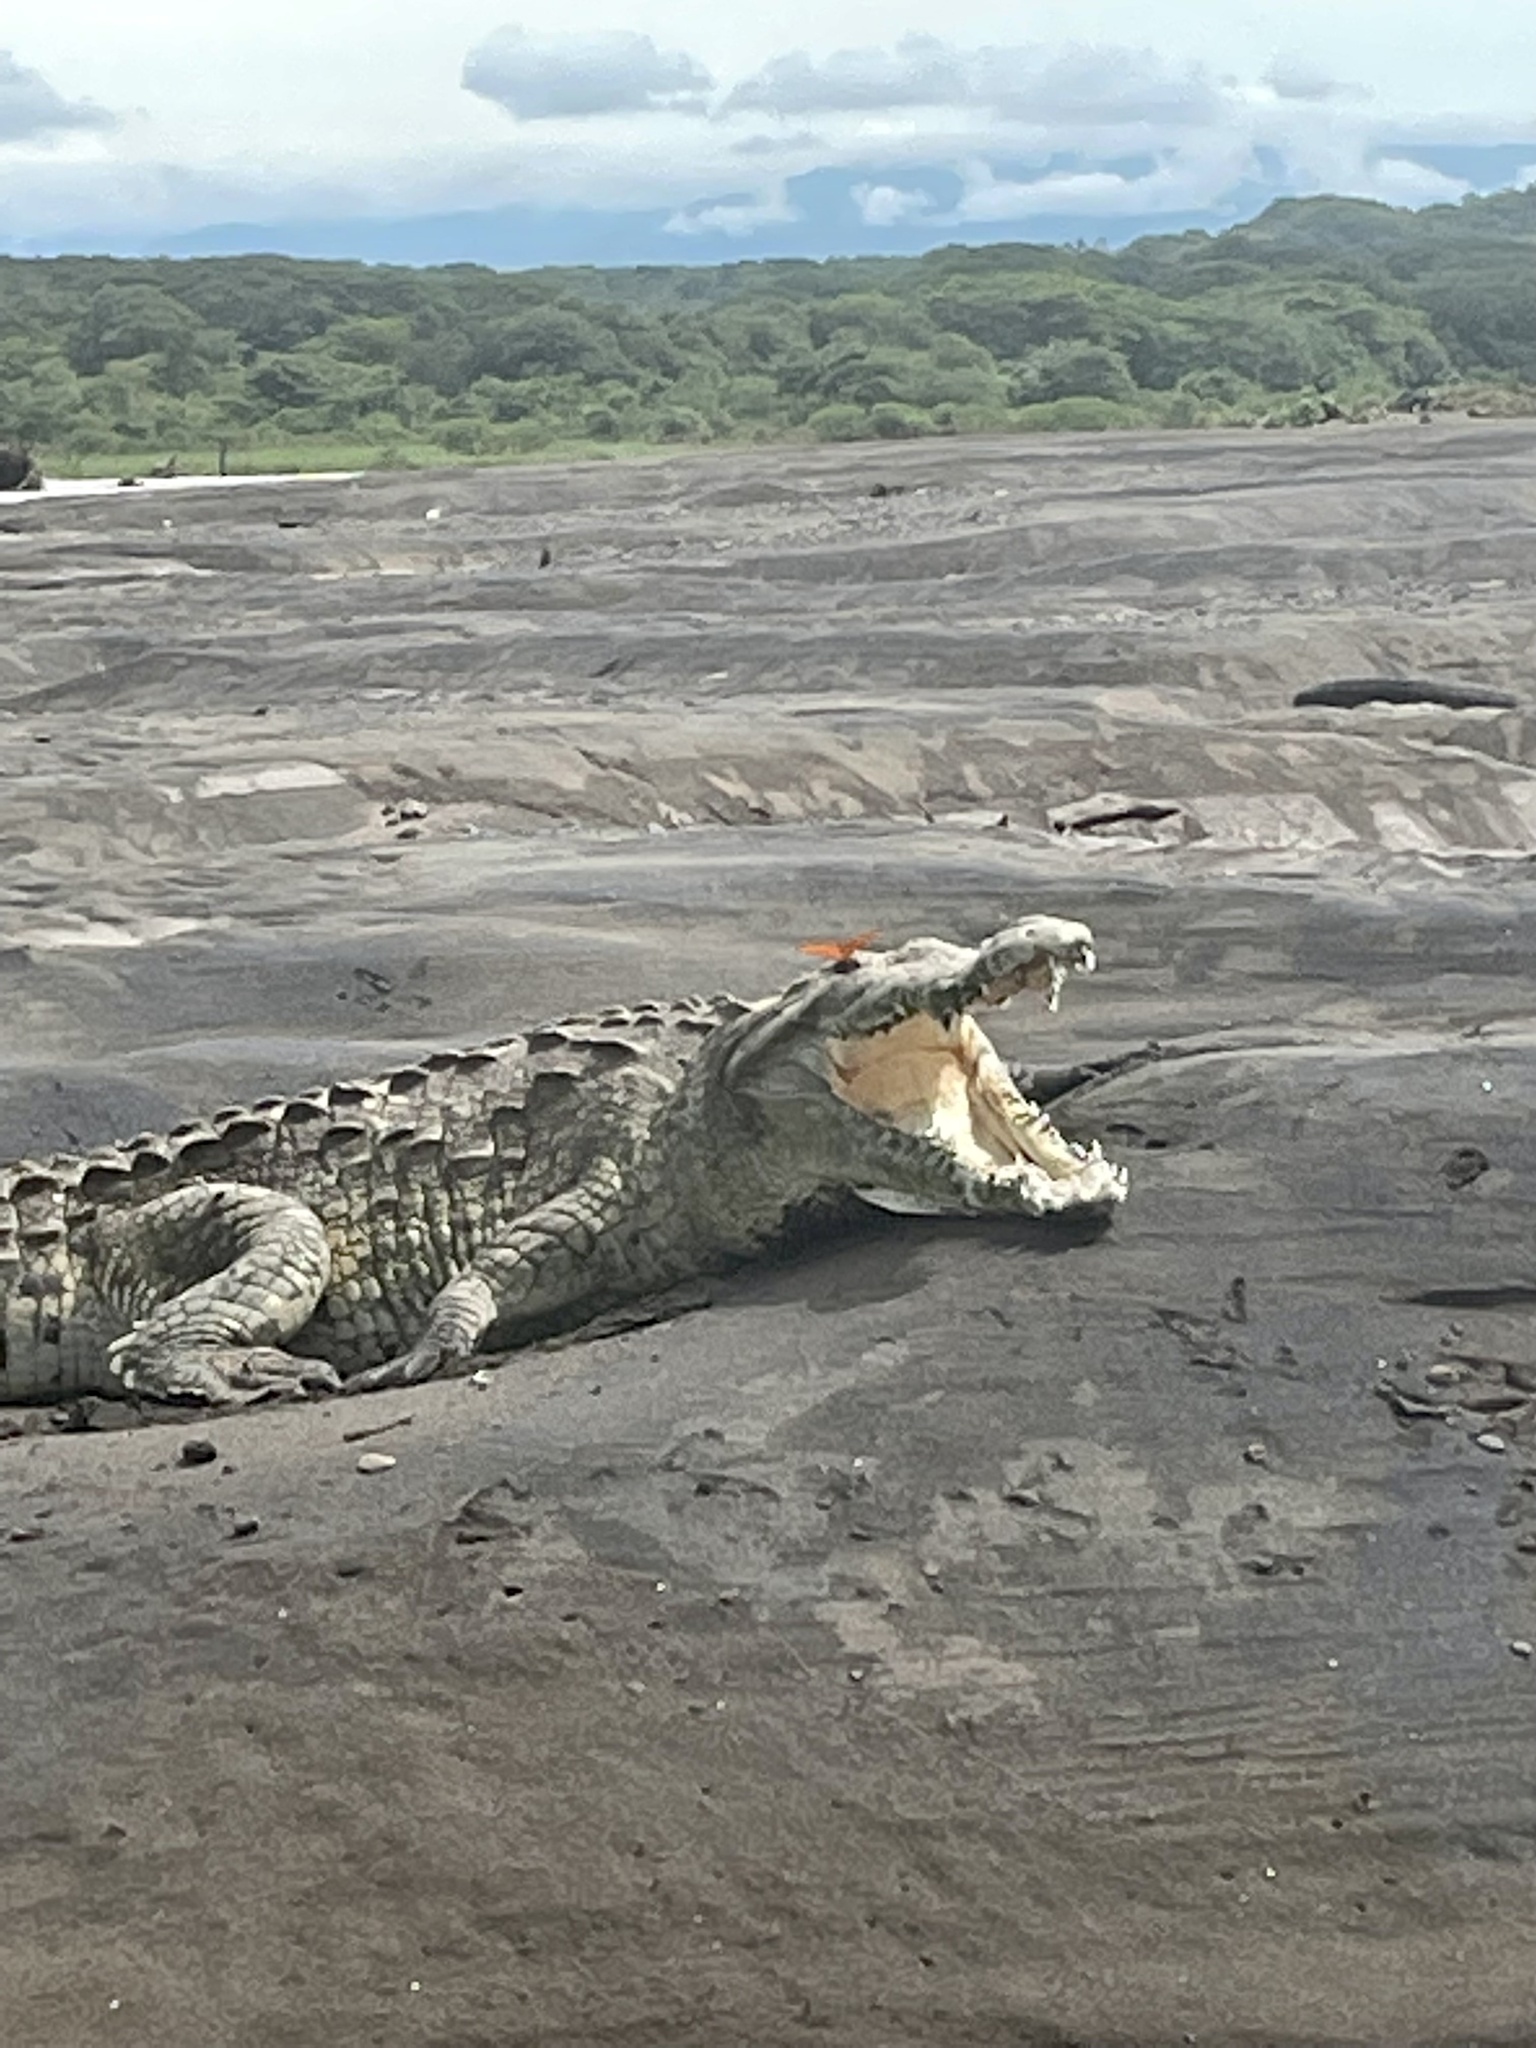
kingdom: Animalia
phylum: Chordata
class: Crocodylia
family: Crocodylidae
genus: Crocodylus
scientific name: Crocodylus acutus
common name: American crocodile
